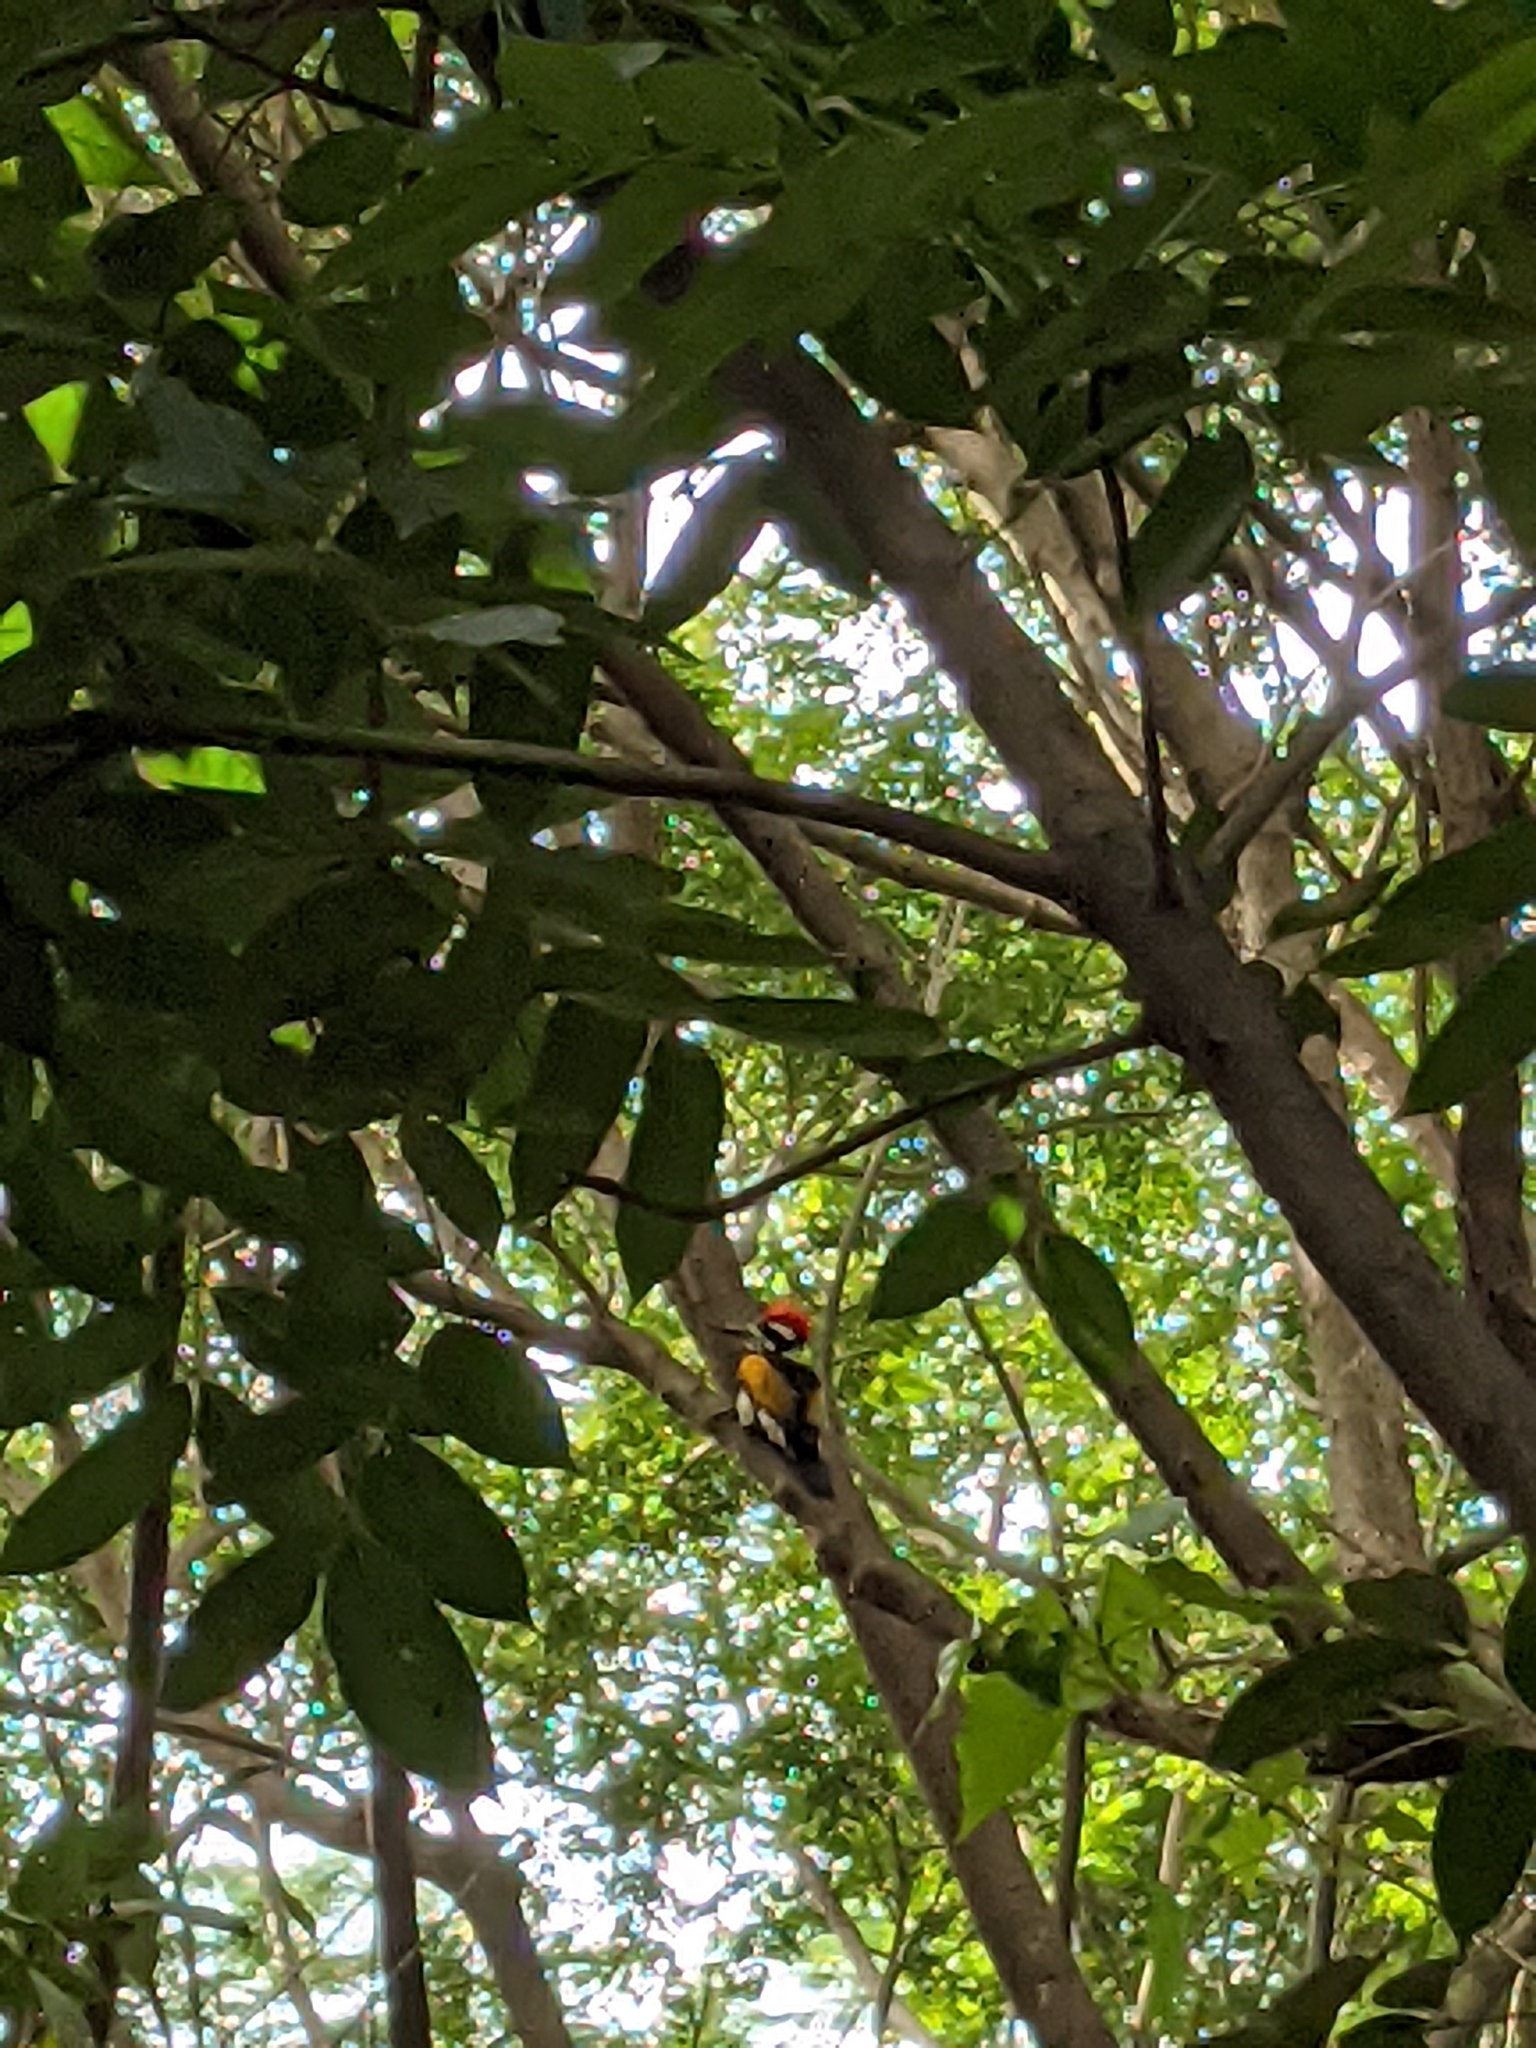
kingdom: Animalia
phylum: Chordata
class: Aves
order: Piciformes
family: Picidae
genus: Dinopium
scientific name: Dinopium benghalense
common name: Black-rumped flameback
